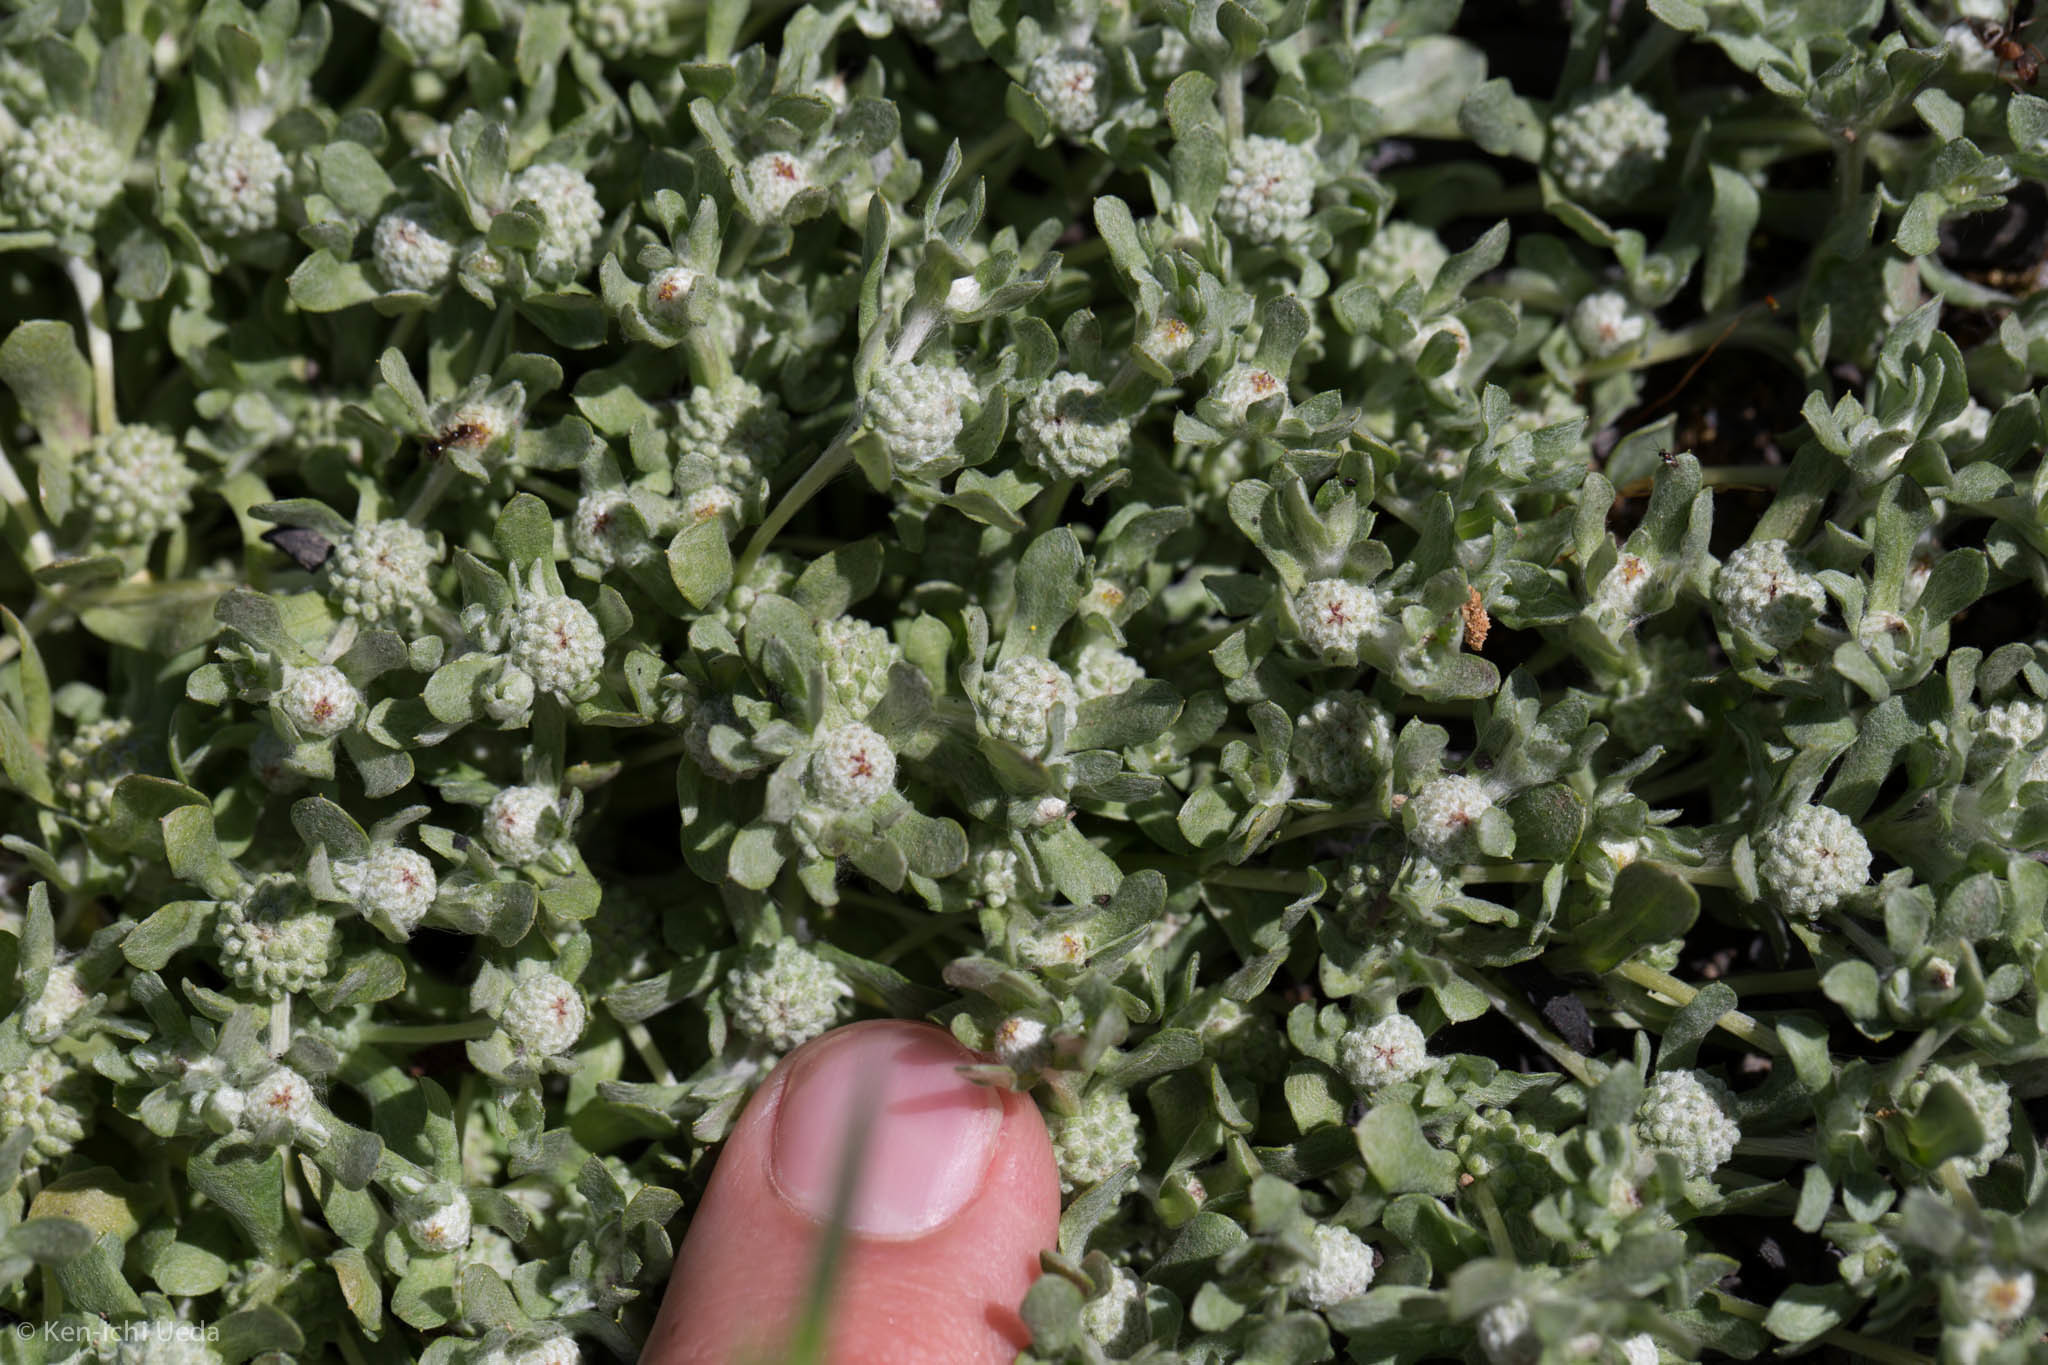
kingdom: Plantae
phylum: Tracheophyta
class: Magnoliopsida
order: Asterales
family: Asteraceae
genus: Psilocarphus
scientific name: Psilocarphus tenellus
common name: Slender woolly-marbles
